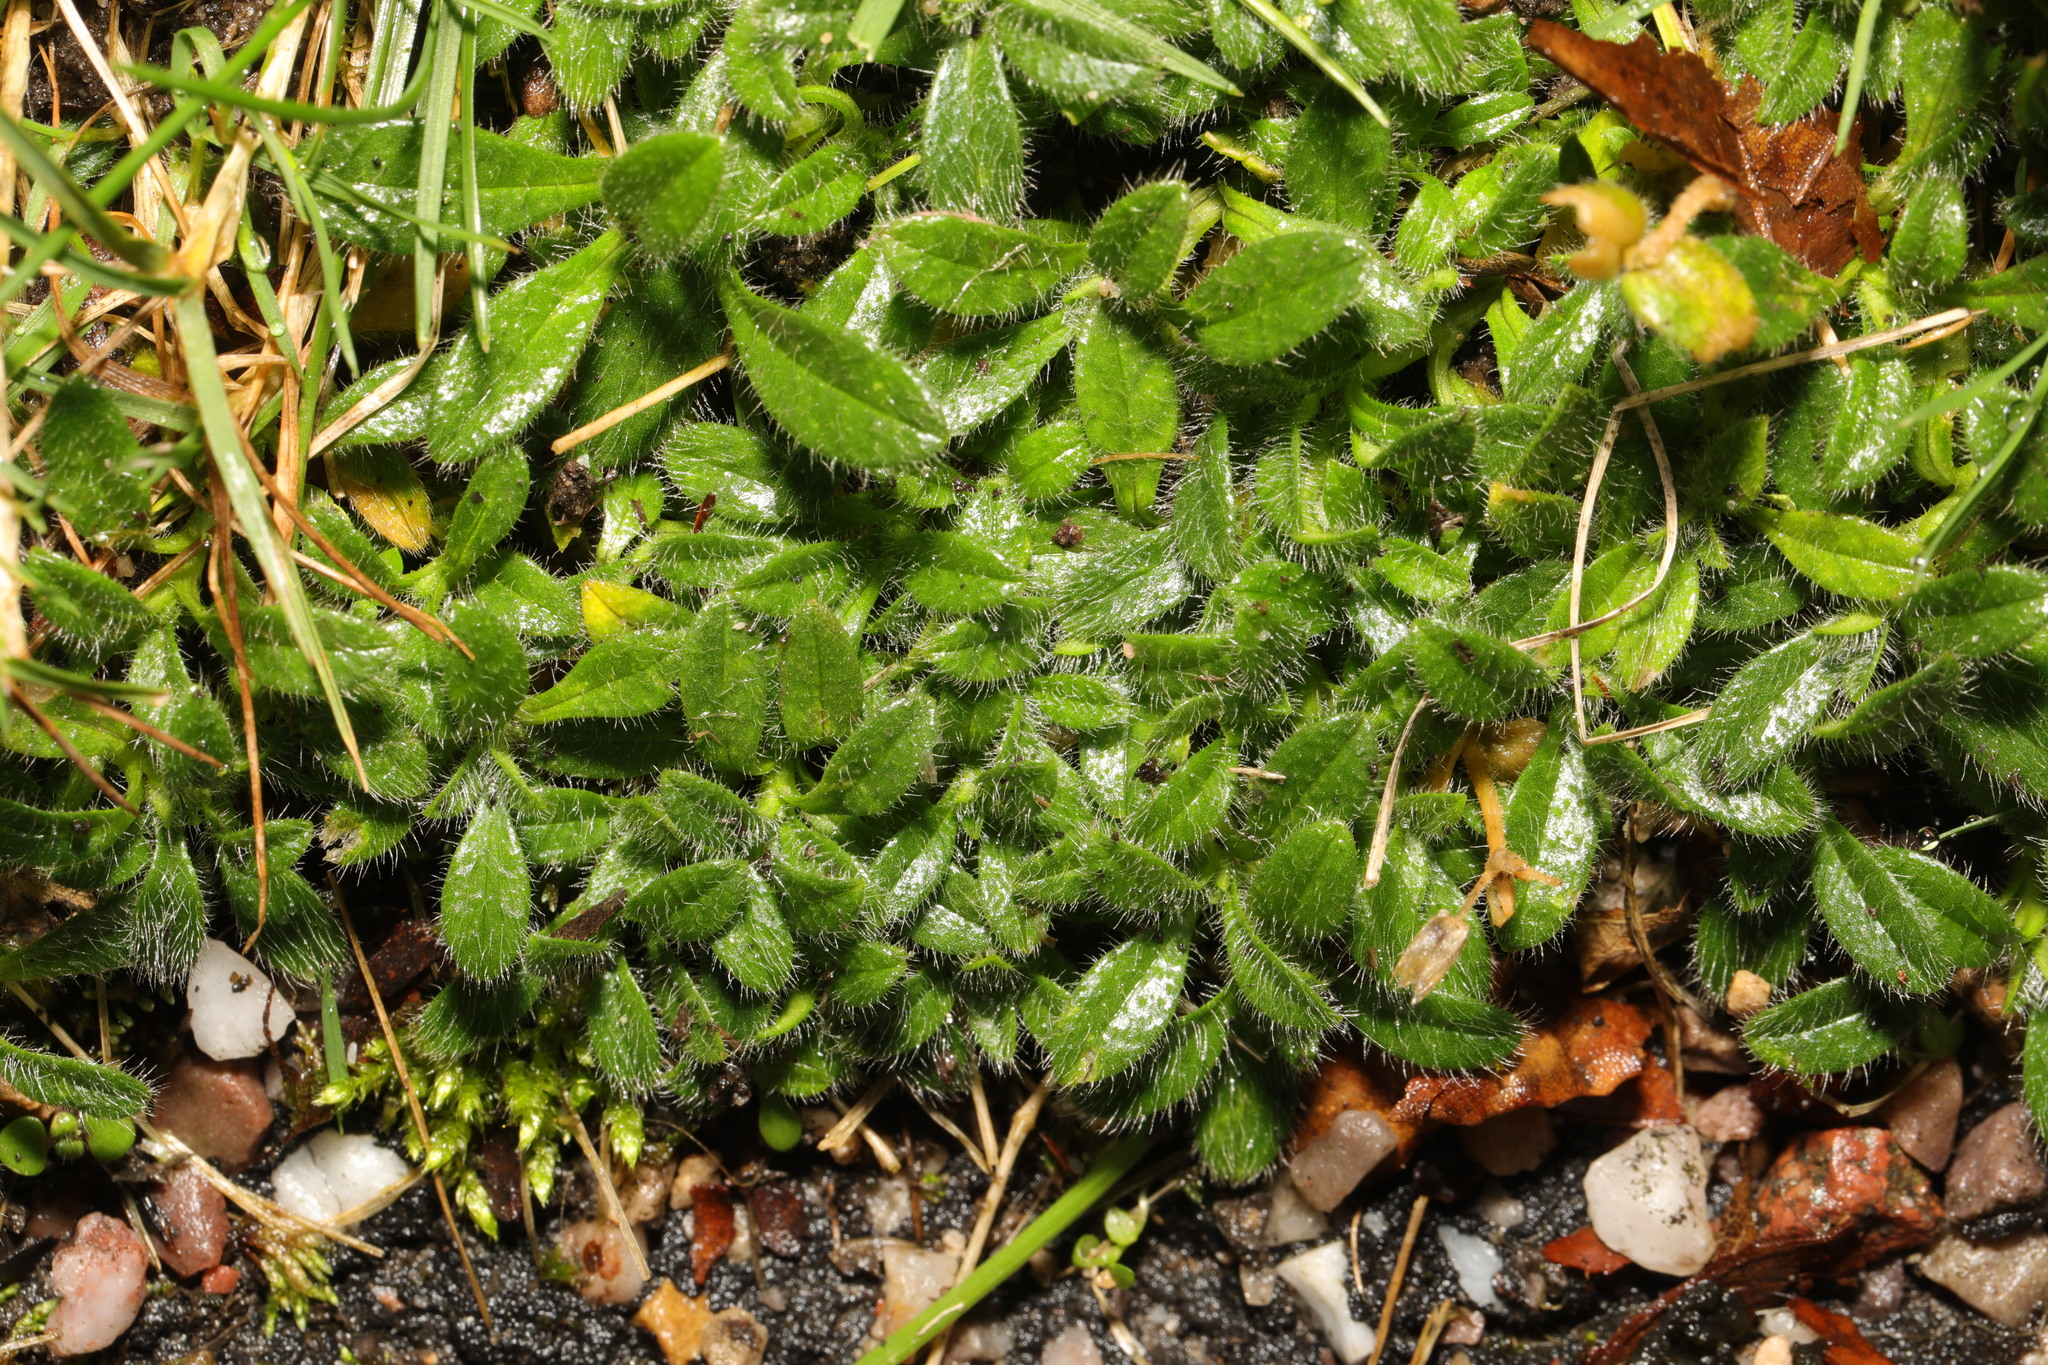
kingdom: Plantae
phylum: Tracheophyta
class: Magnoliopsida
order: Caryophyllales
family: Caryophyllaceae
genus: Cerastium
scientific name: Cerastium fontanum
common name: Common mouse-ear
